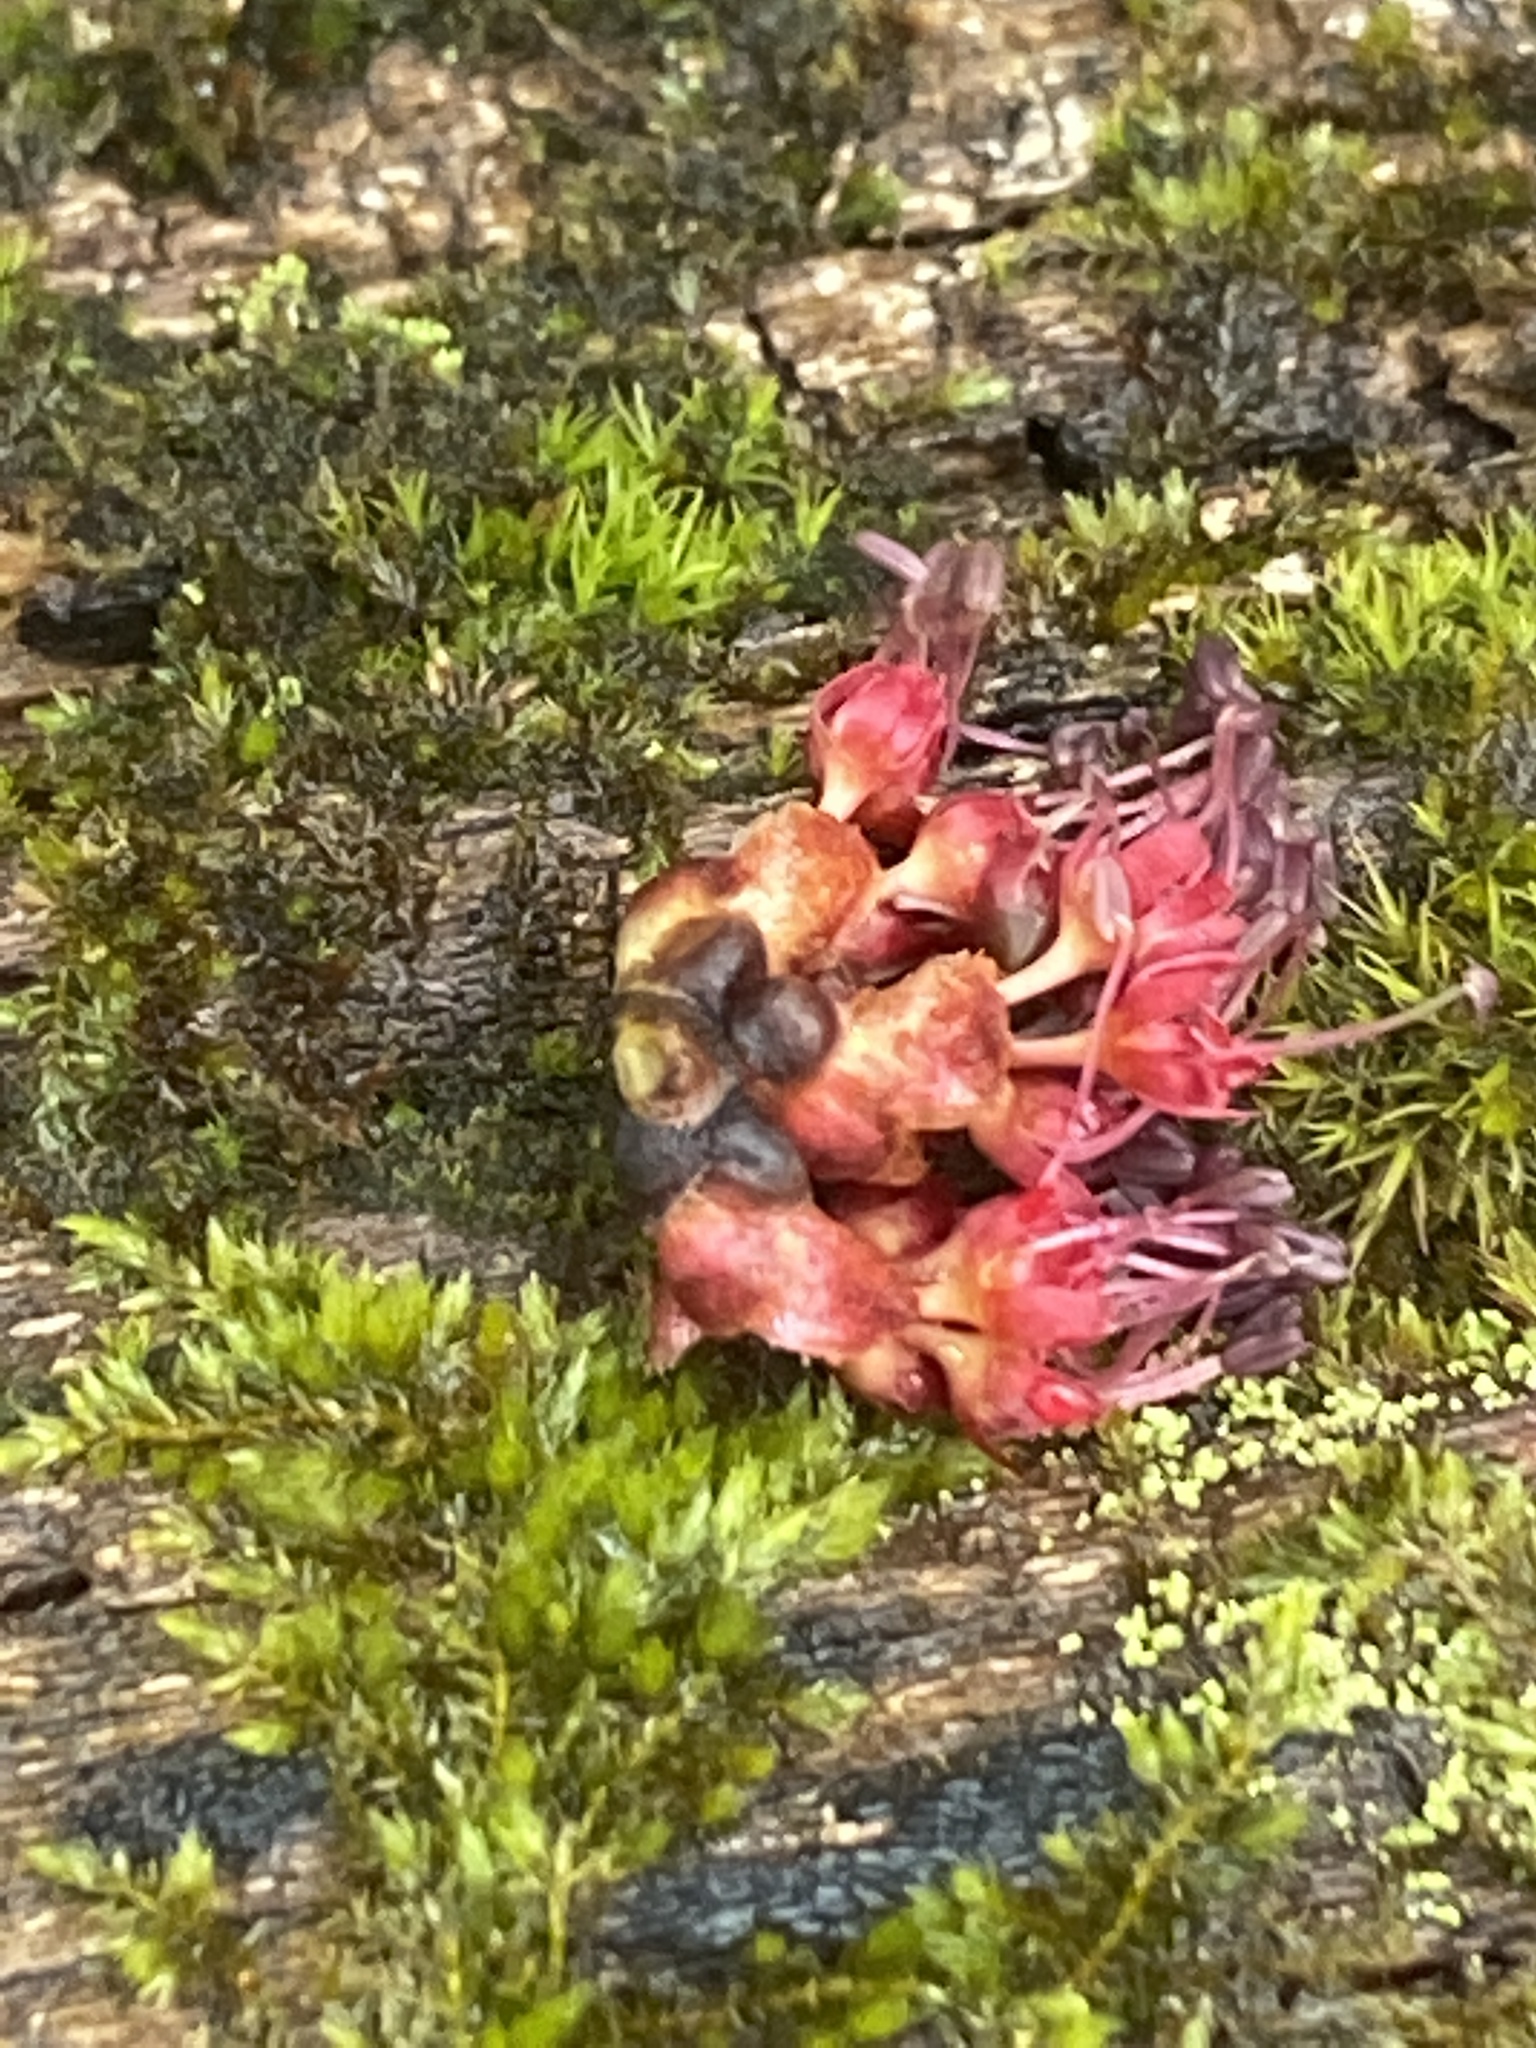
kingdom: Plantae
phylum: Tracheophyta
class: Magnoliopsida
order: Sapindales
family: Sapindaceae
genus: Acer
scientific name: Acer rubrum
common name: Red maple
